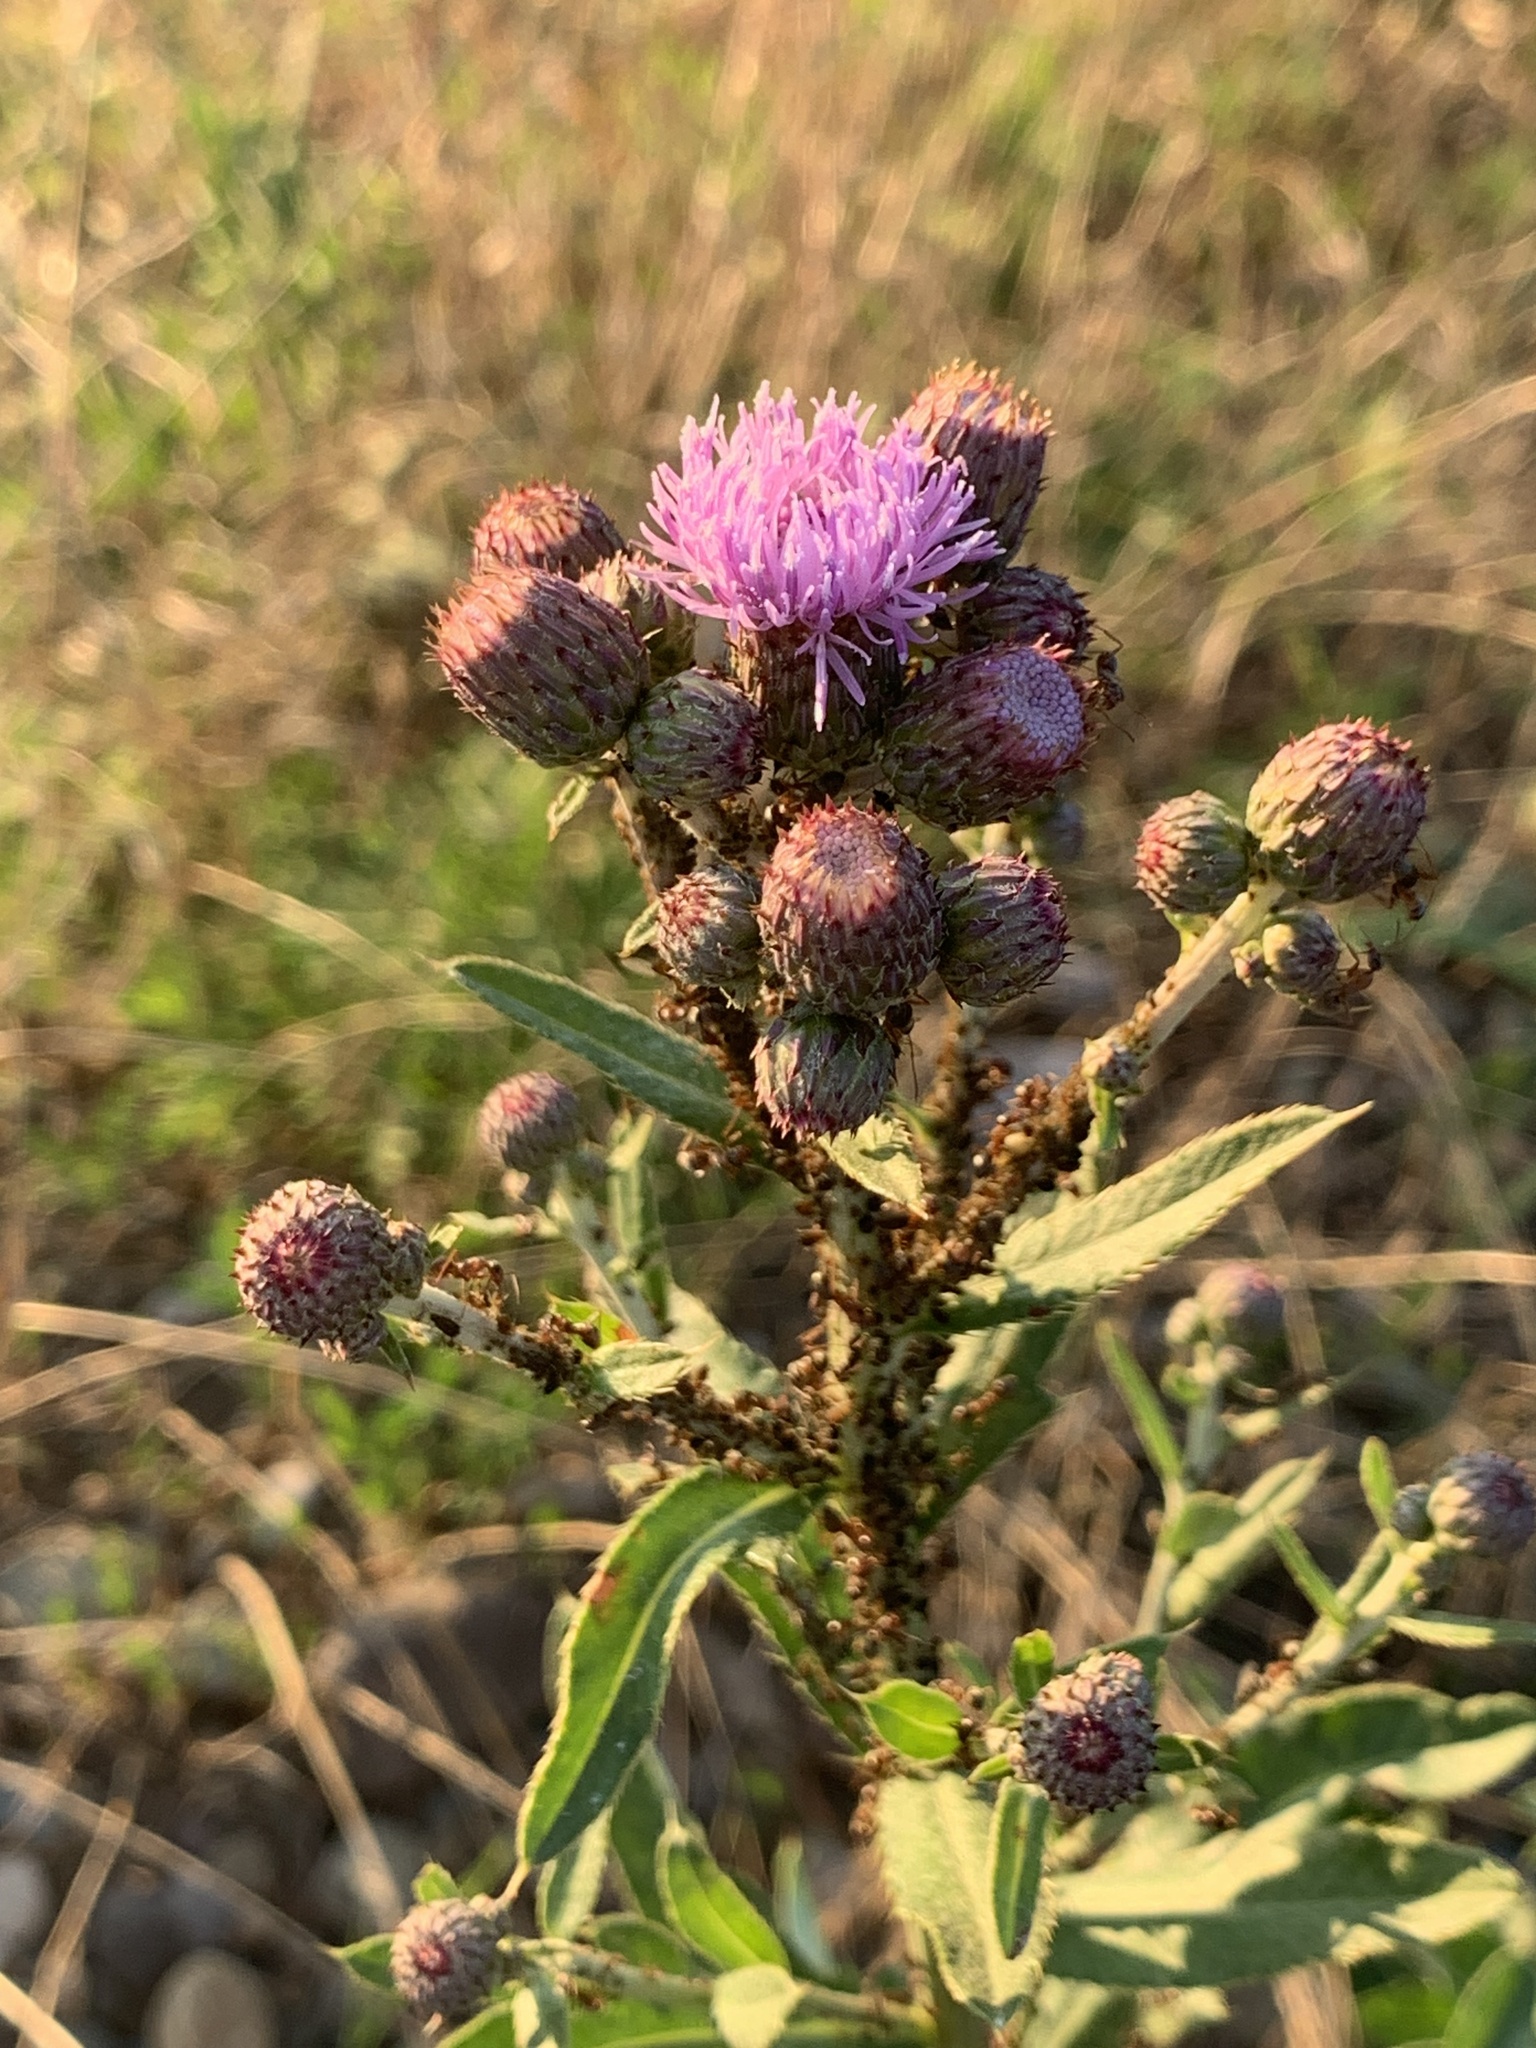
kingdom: Plantae
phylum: Tracheophyta
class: Magnoliopsida
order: Asterales
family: Asteraceae
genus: Cirsium
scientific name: Cirsium arvense
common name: Creeping thistle
